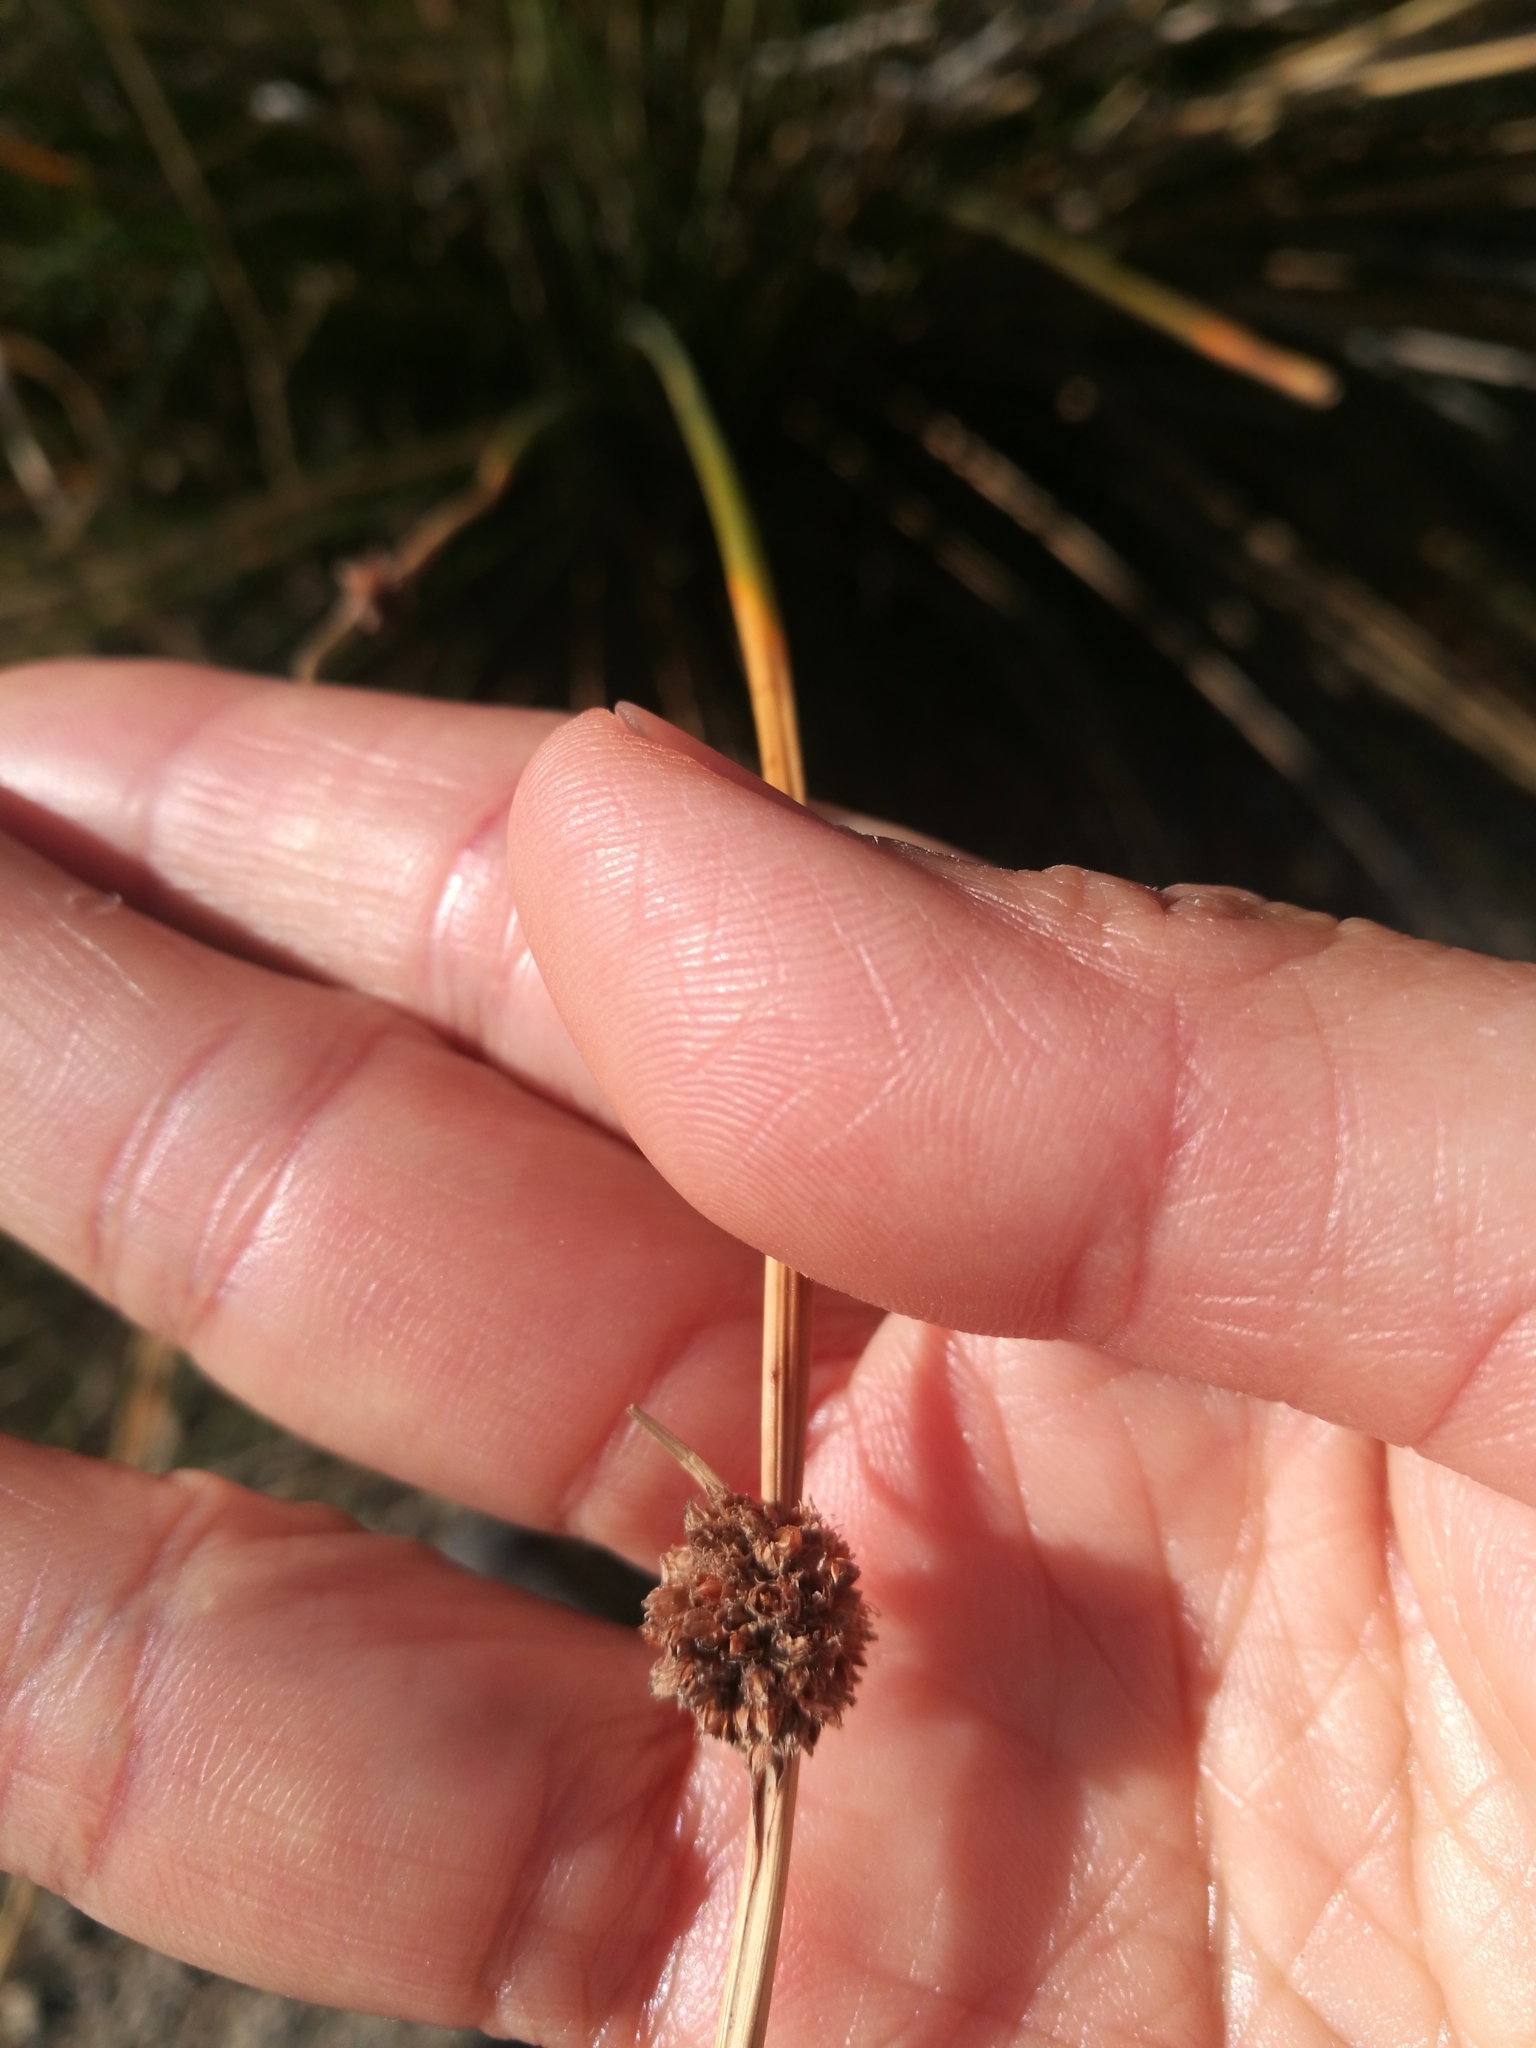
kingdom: Plantae
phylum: Tracheophyta
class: Liliopsida
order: Poales
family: Cyperaceae
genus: Ficinia
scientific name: Ficinia nodosa
